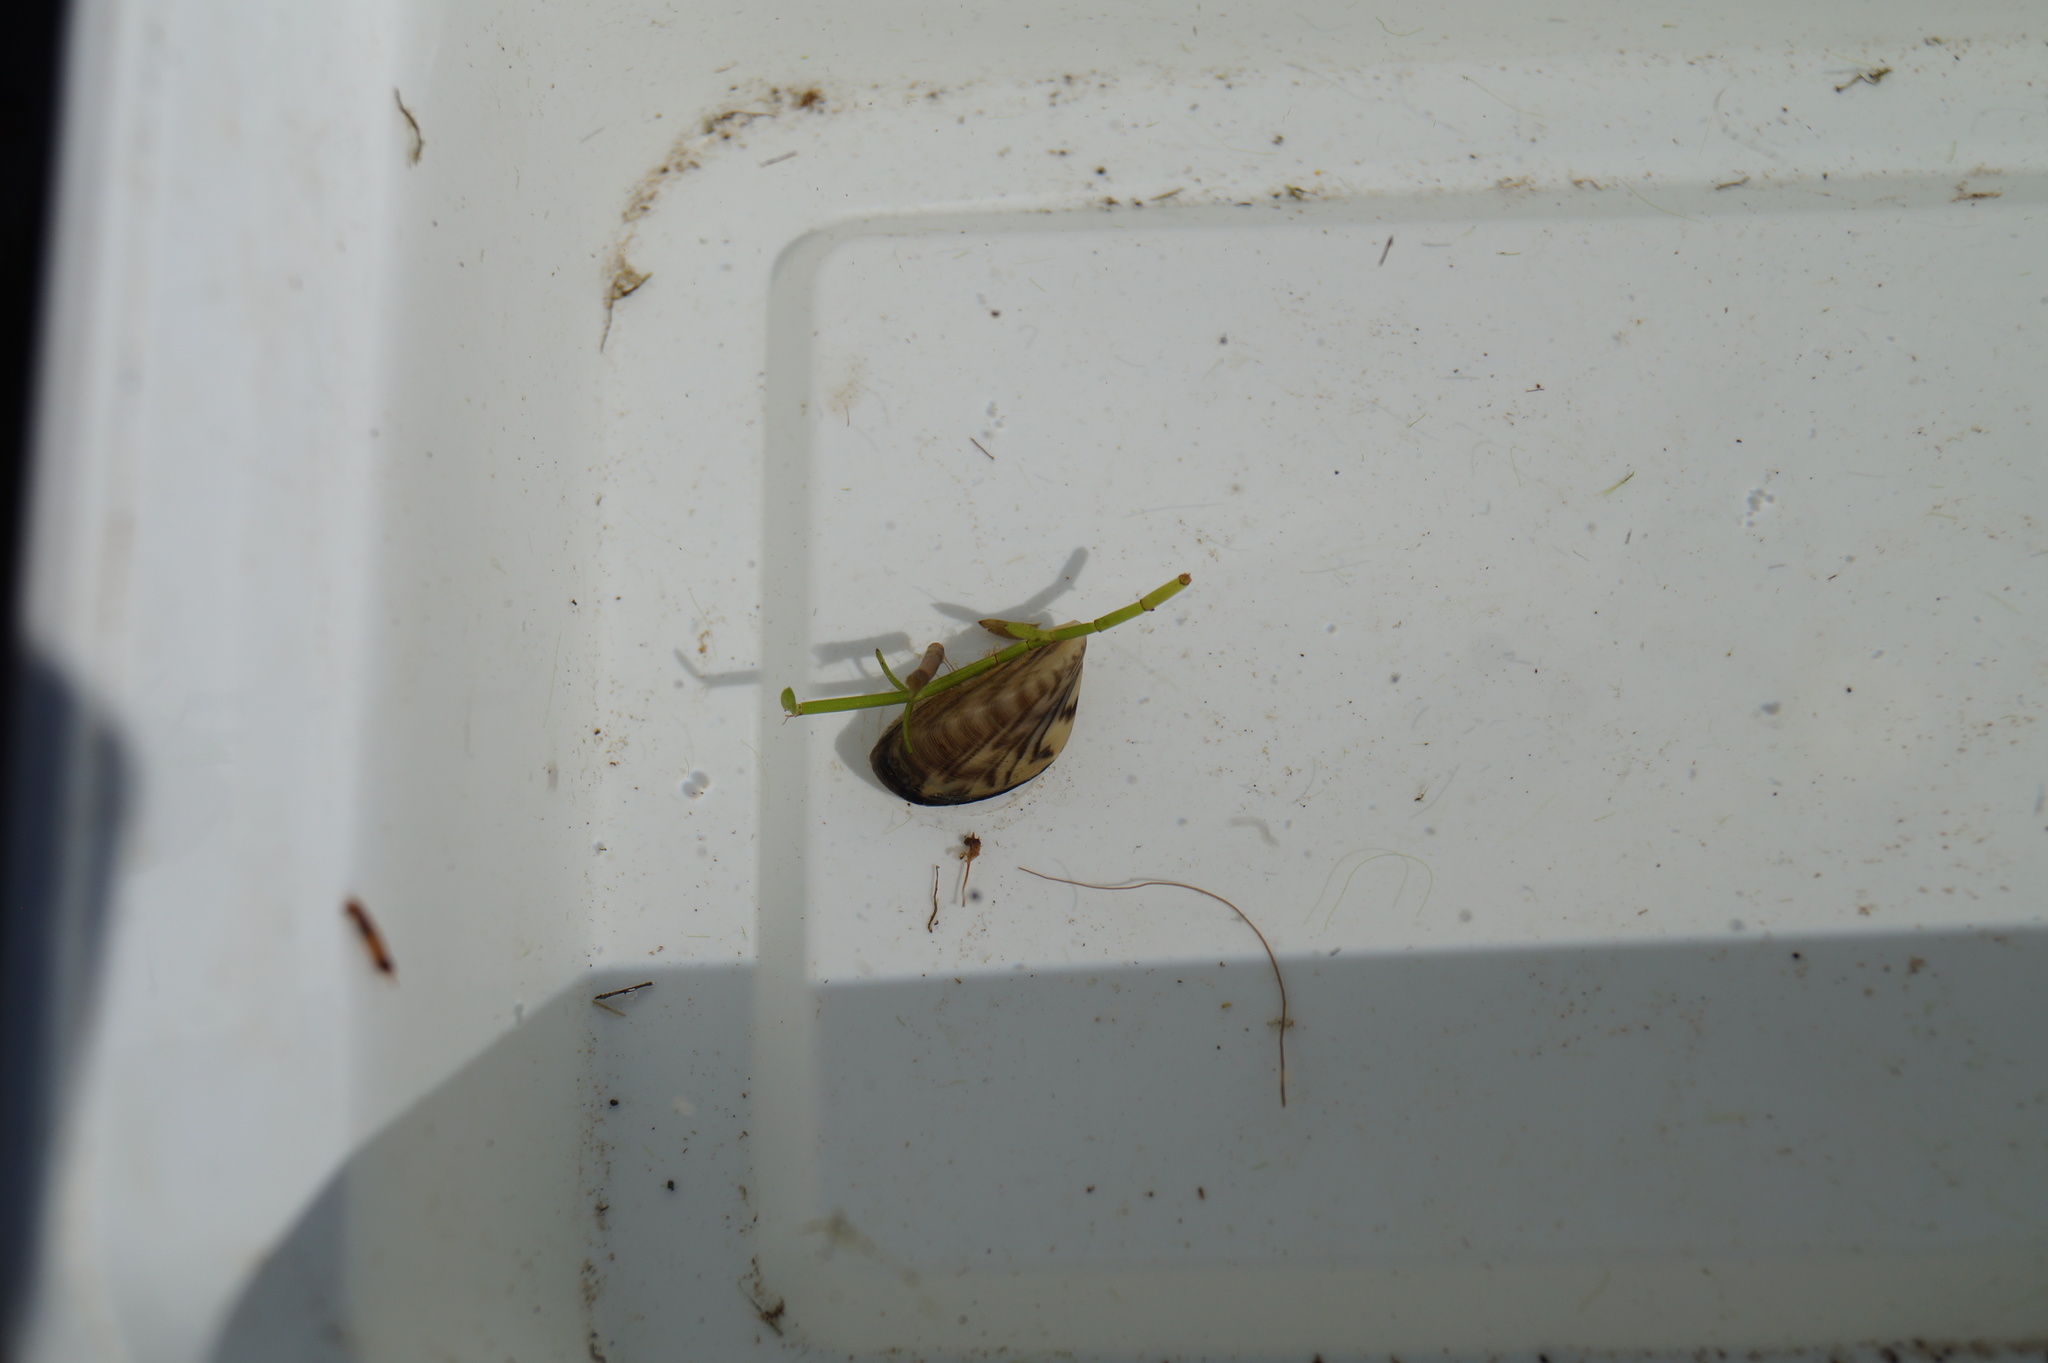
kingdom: Animalia
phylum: Mollusca
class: Bivalvia
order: Myida
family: Dreissenidae
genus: Dreissena
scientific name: Dreissena polymorpha
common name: Zebra mussel
